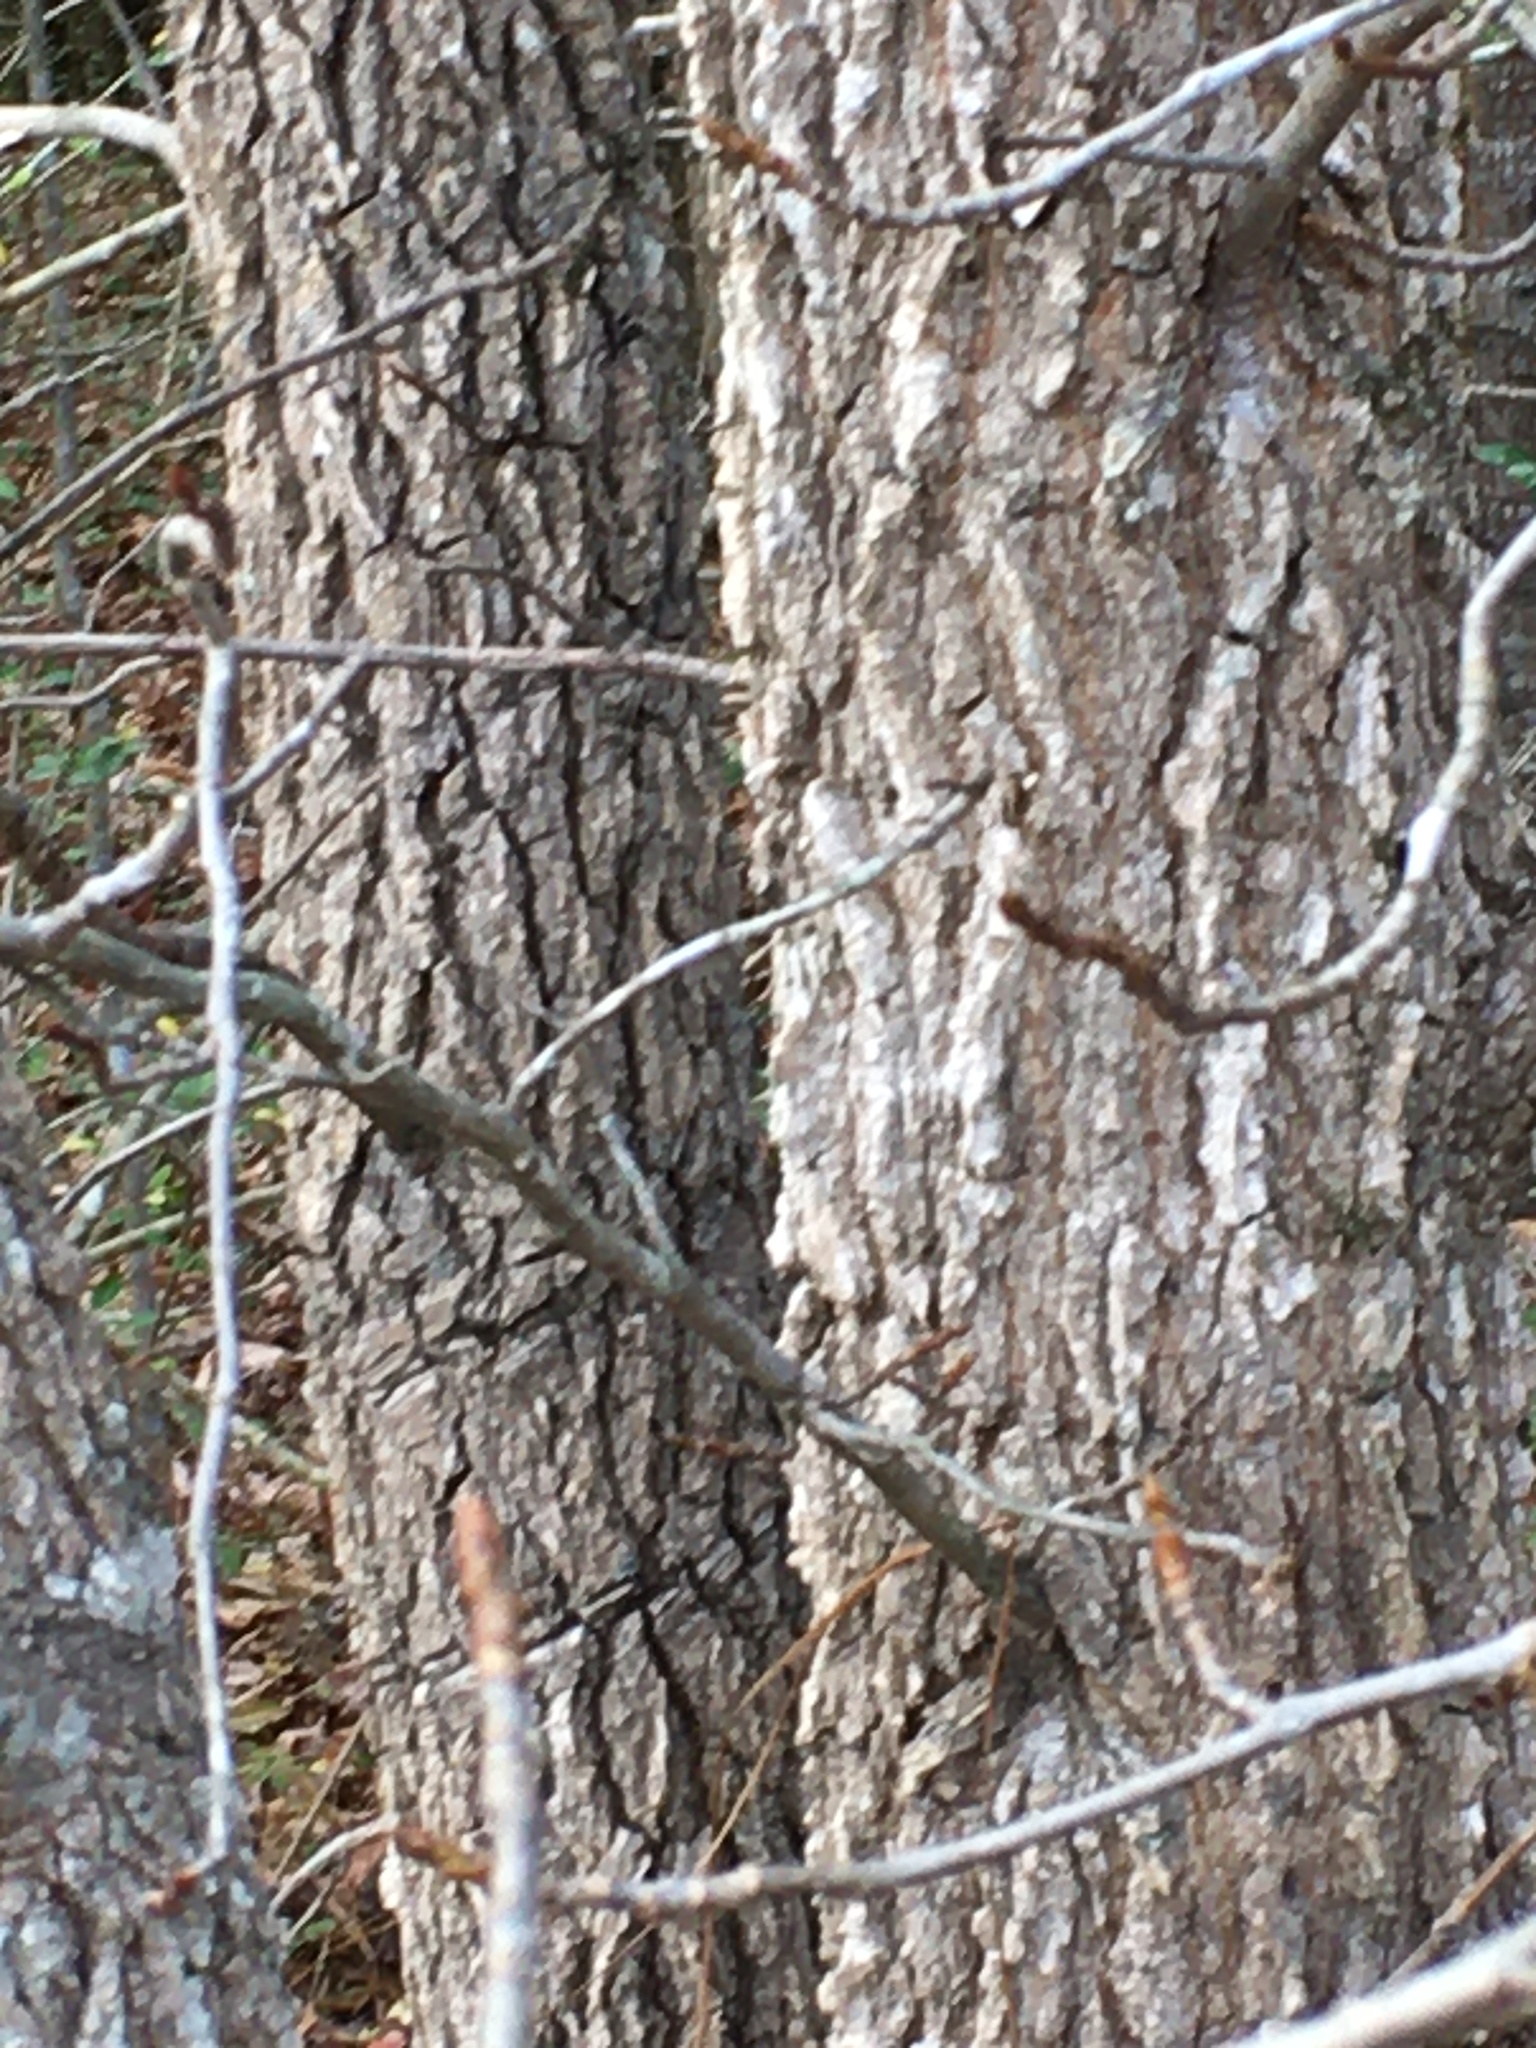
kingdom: Plantae
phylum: Tracheophyta
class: Magnoliopsida
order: Saxifragales
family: Altingiaceae
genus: Liquidambar
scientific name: Liquidambar styraciflua
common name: Sweet gum
